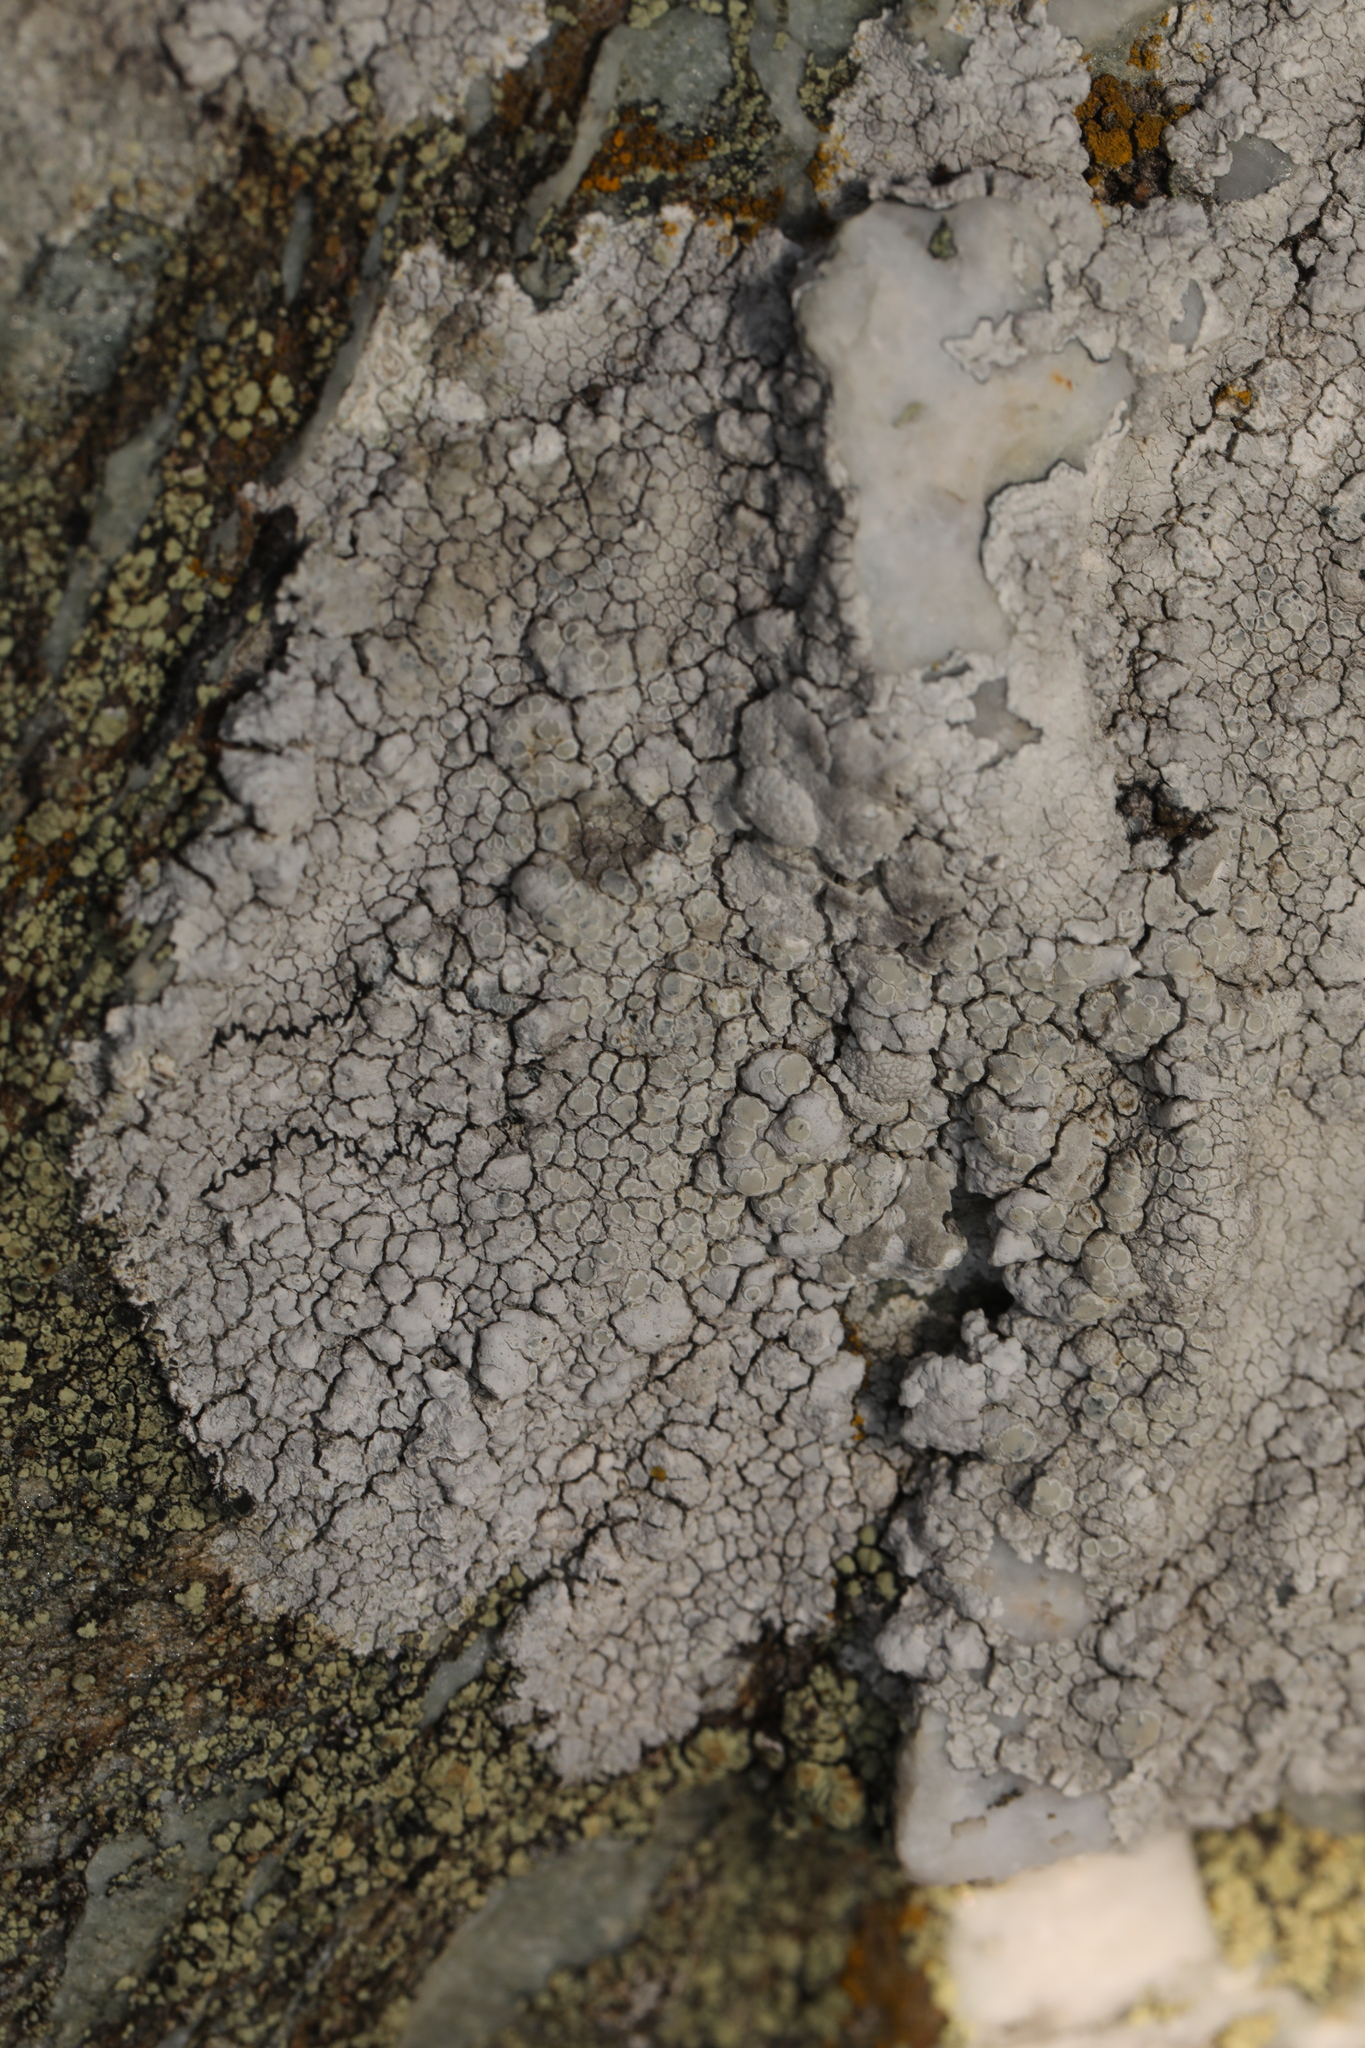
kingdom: Fungi
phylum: Ascomycota
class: Lecanoromycetes
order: Lecanorales
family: Lecanoraceae
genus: Glaucomaria
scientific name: Glaucomaria rupicola
